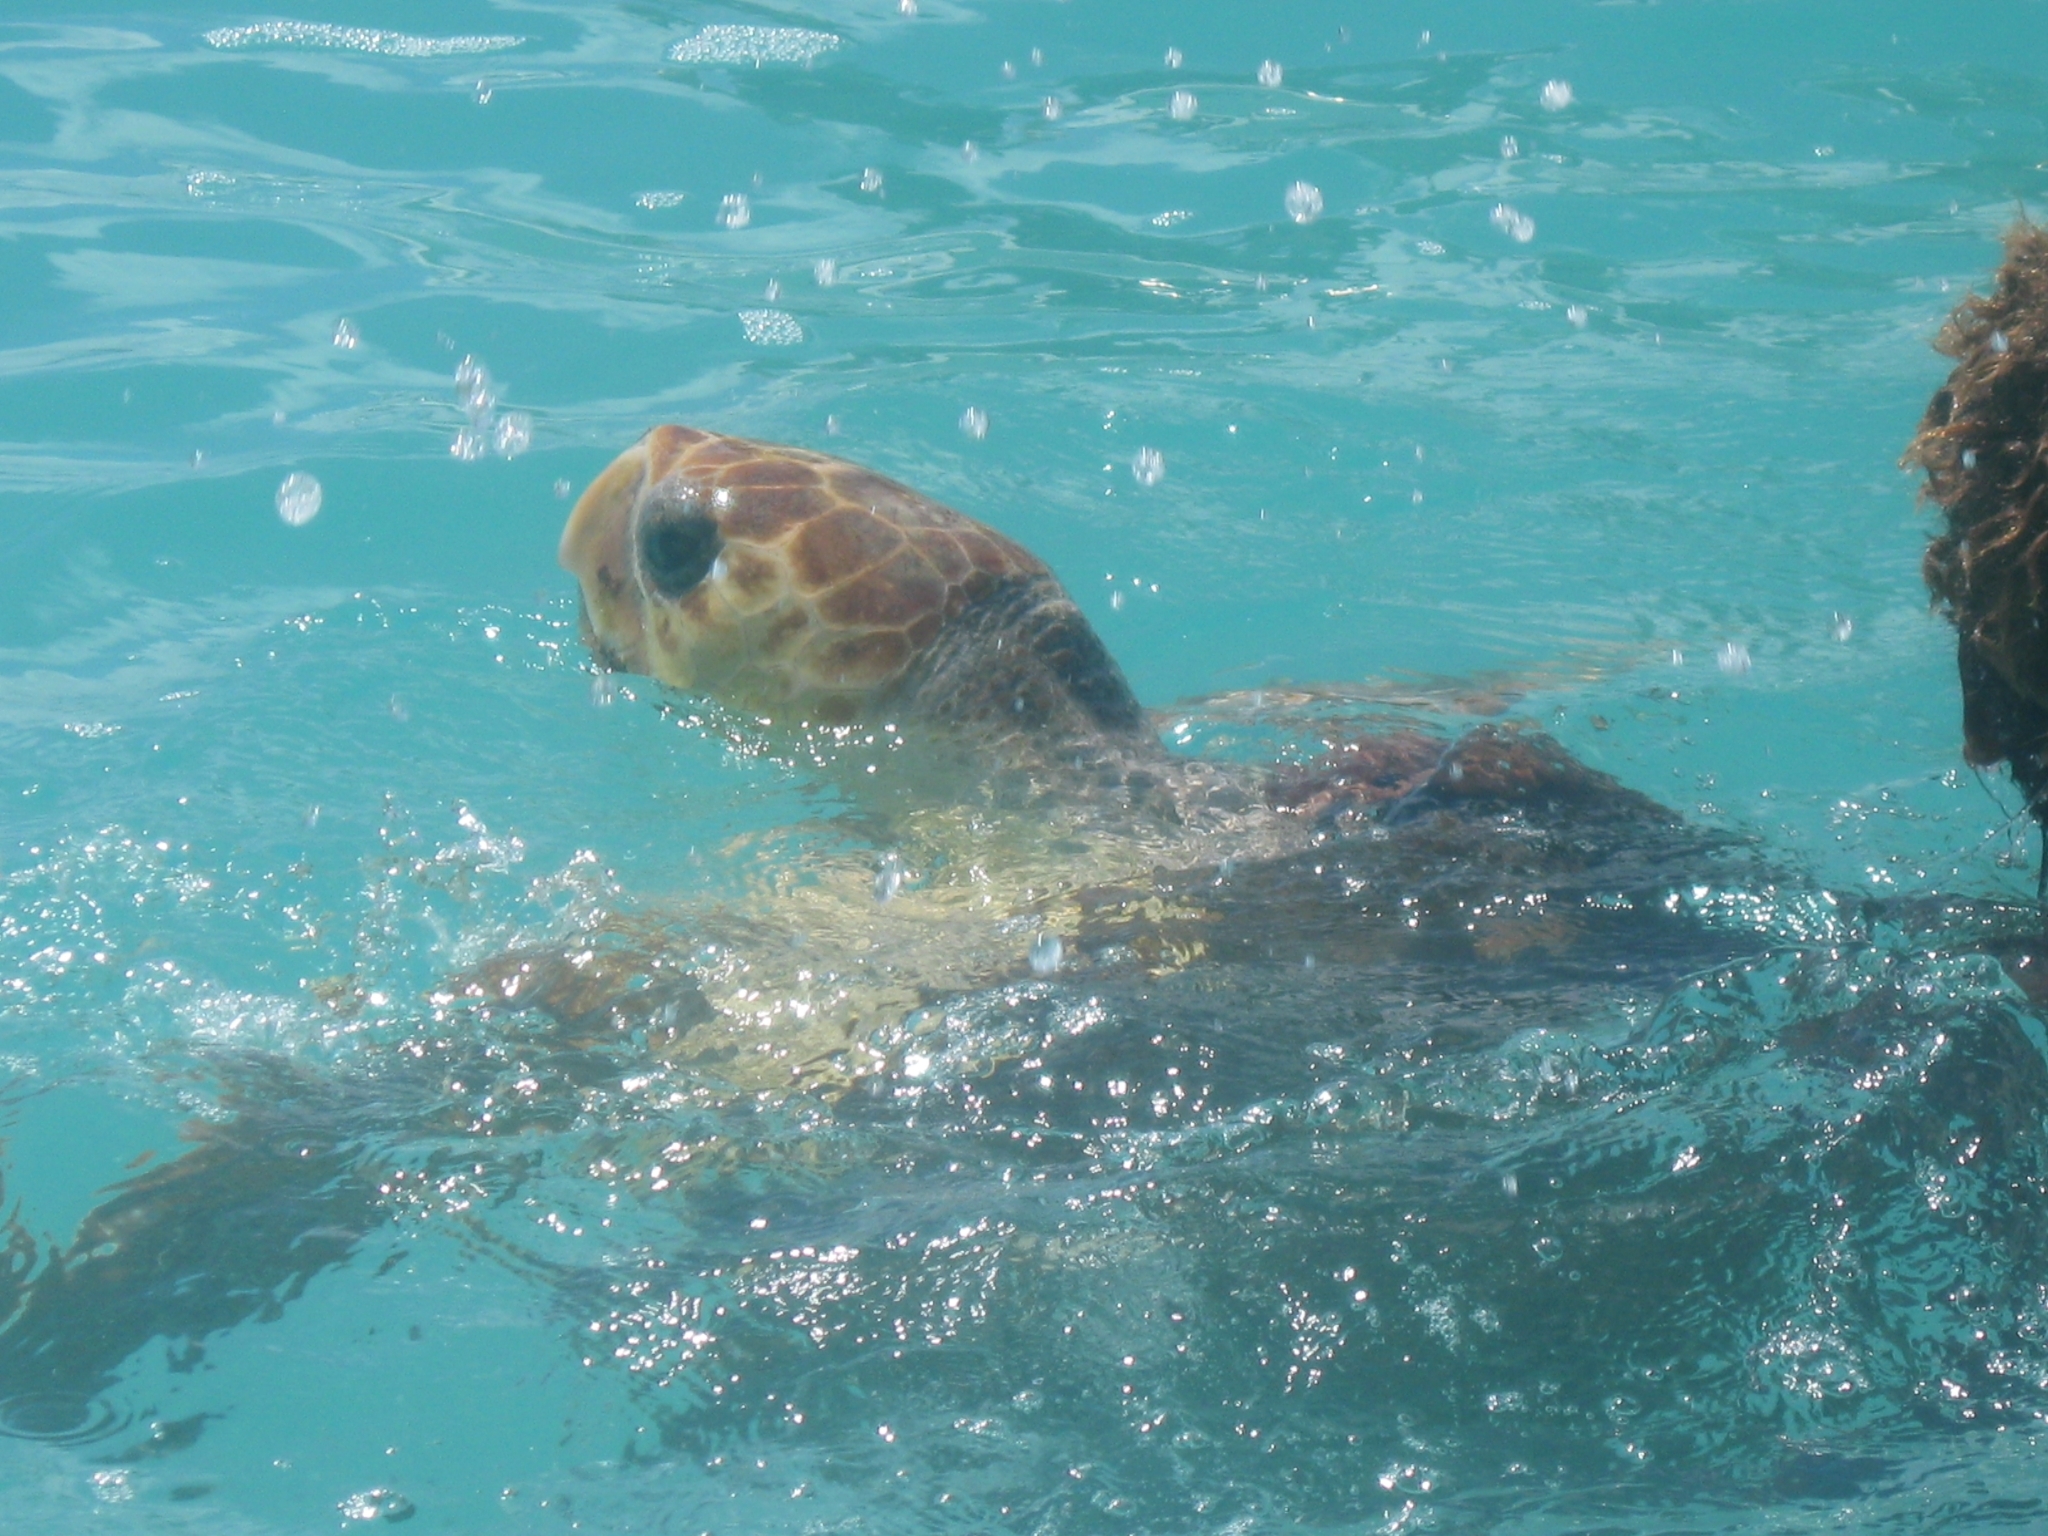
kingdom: Animalia
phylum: Chordata
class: Testudines
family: Cheloniidae
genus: Caretta
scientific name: Caretta caretta
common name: Loggerhead sea turtle
